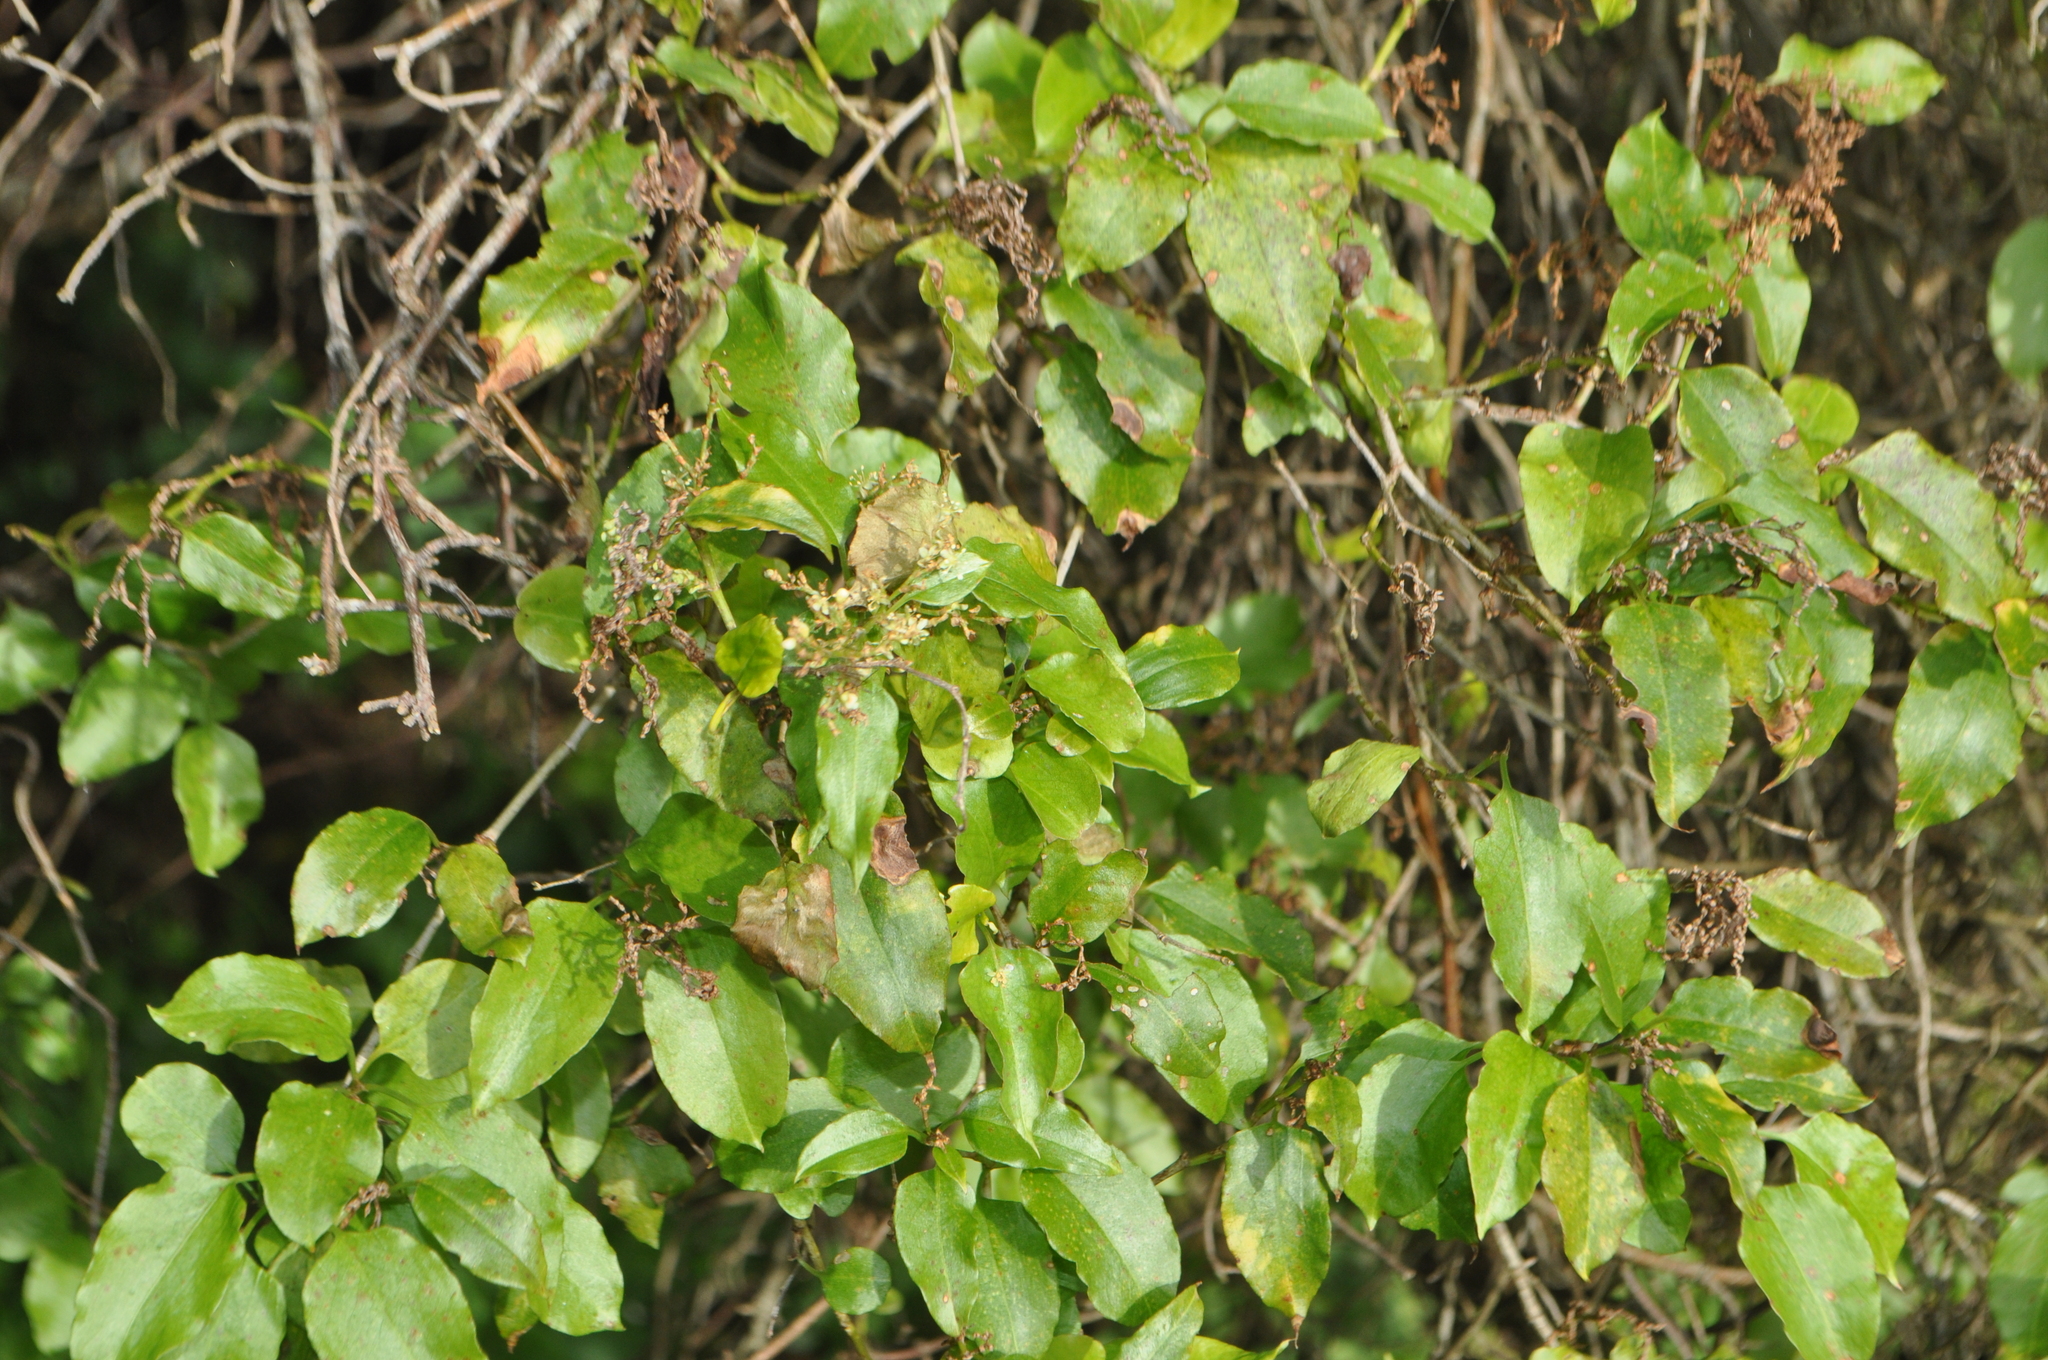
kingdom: Plantae
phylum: Tracheophyta
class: Magnoliopsida
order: Caryophyllales
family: Polygonaceae
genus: Muehlenbeckia
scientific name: Muehlenbeckia australis
